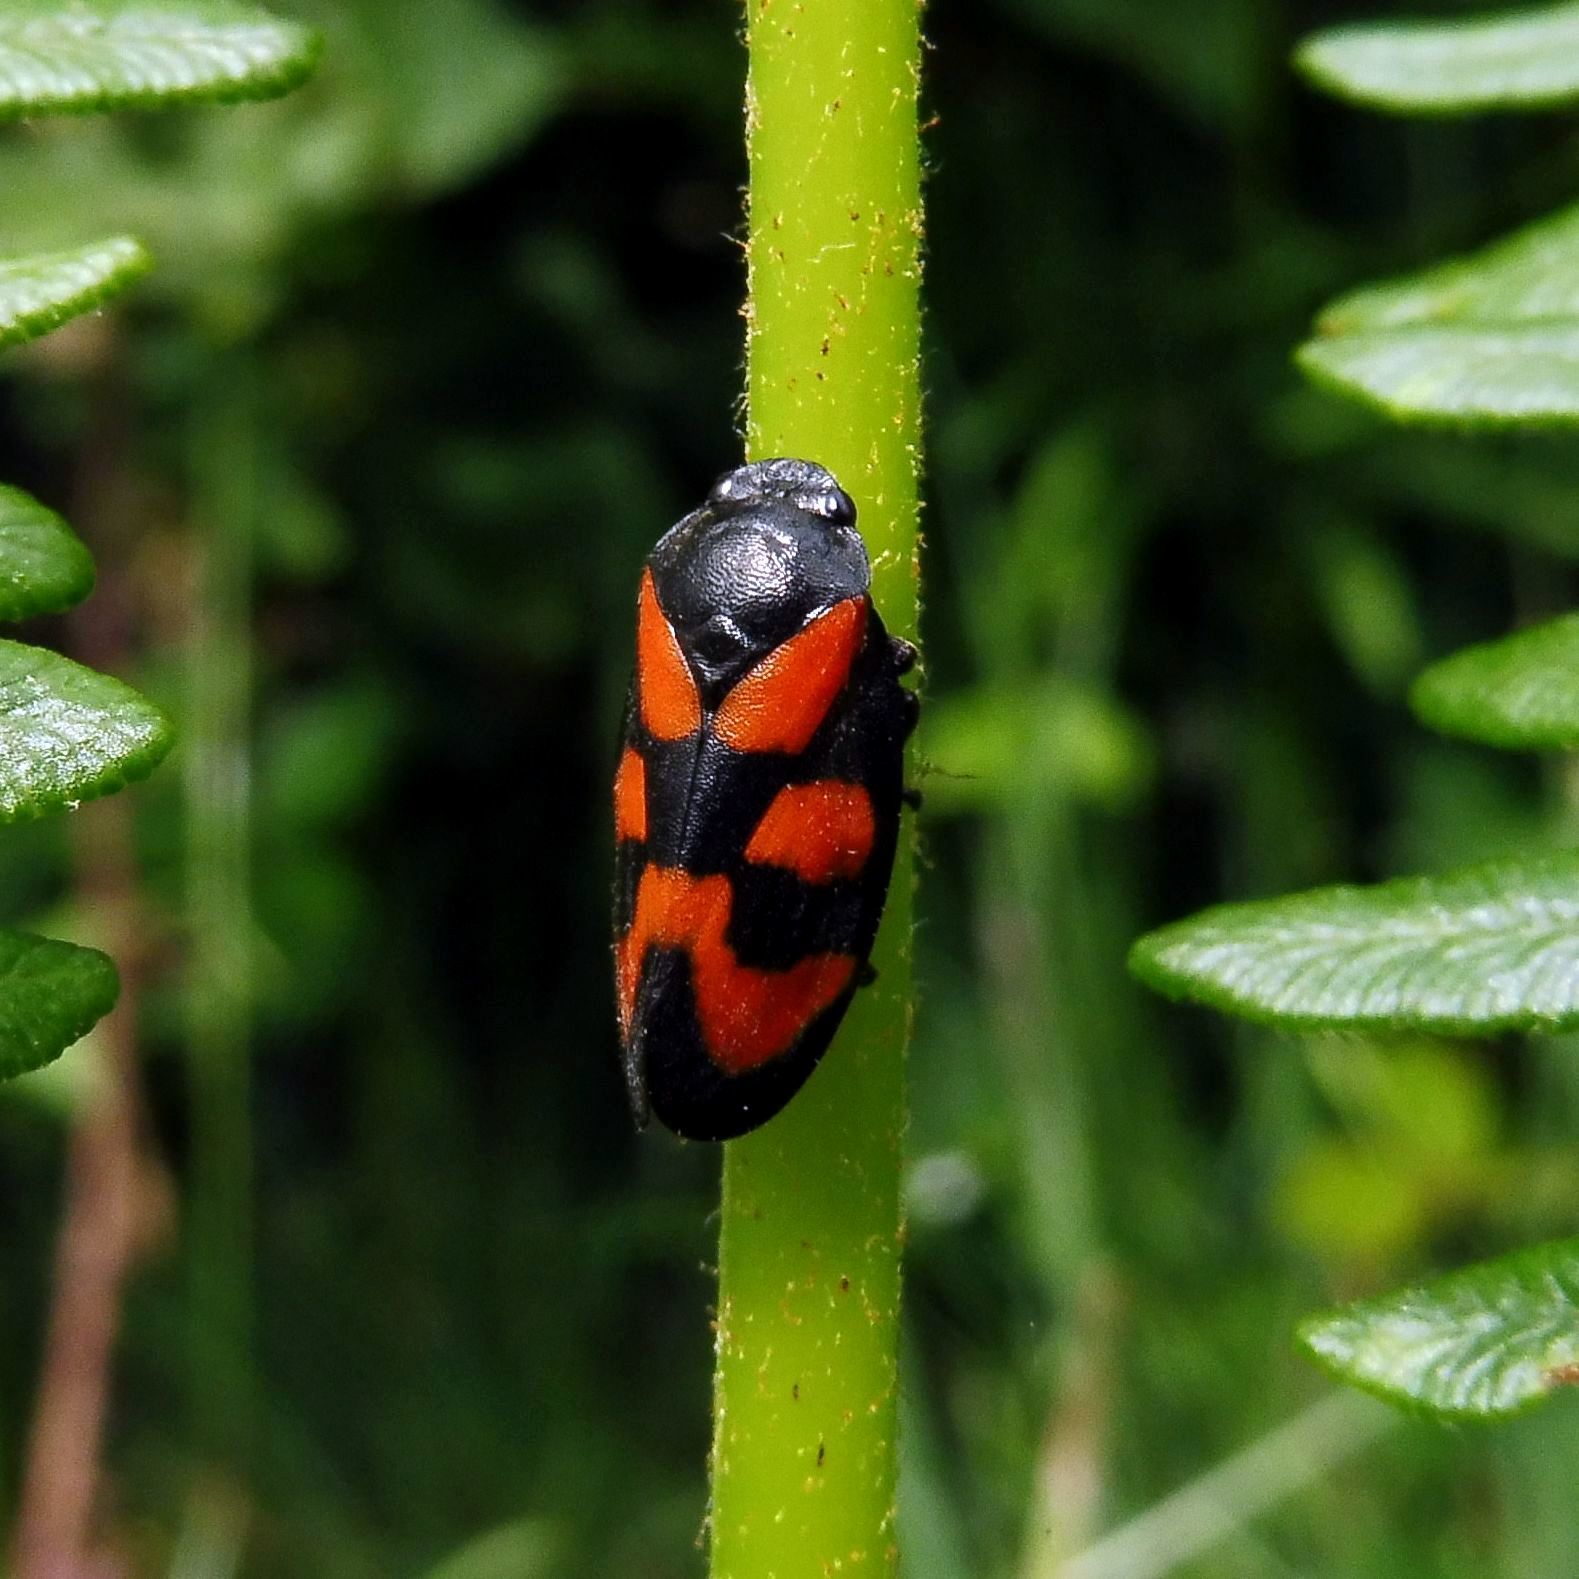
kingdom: Animalia
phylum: Arthropoda
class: Insecta
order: Hemiptera
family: Cercopidae
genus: Cercopis
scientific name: Cercopis vulnerata
